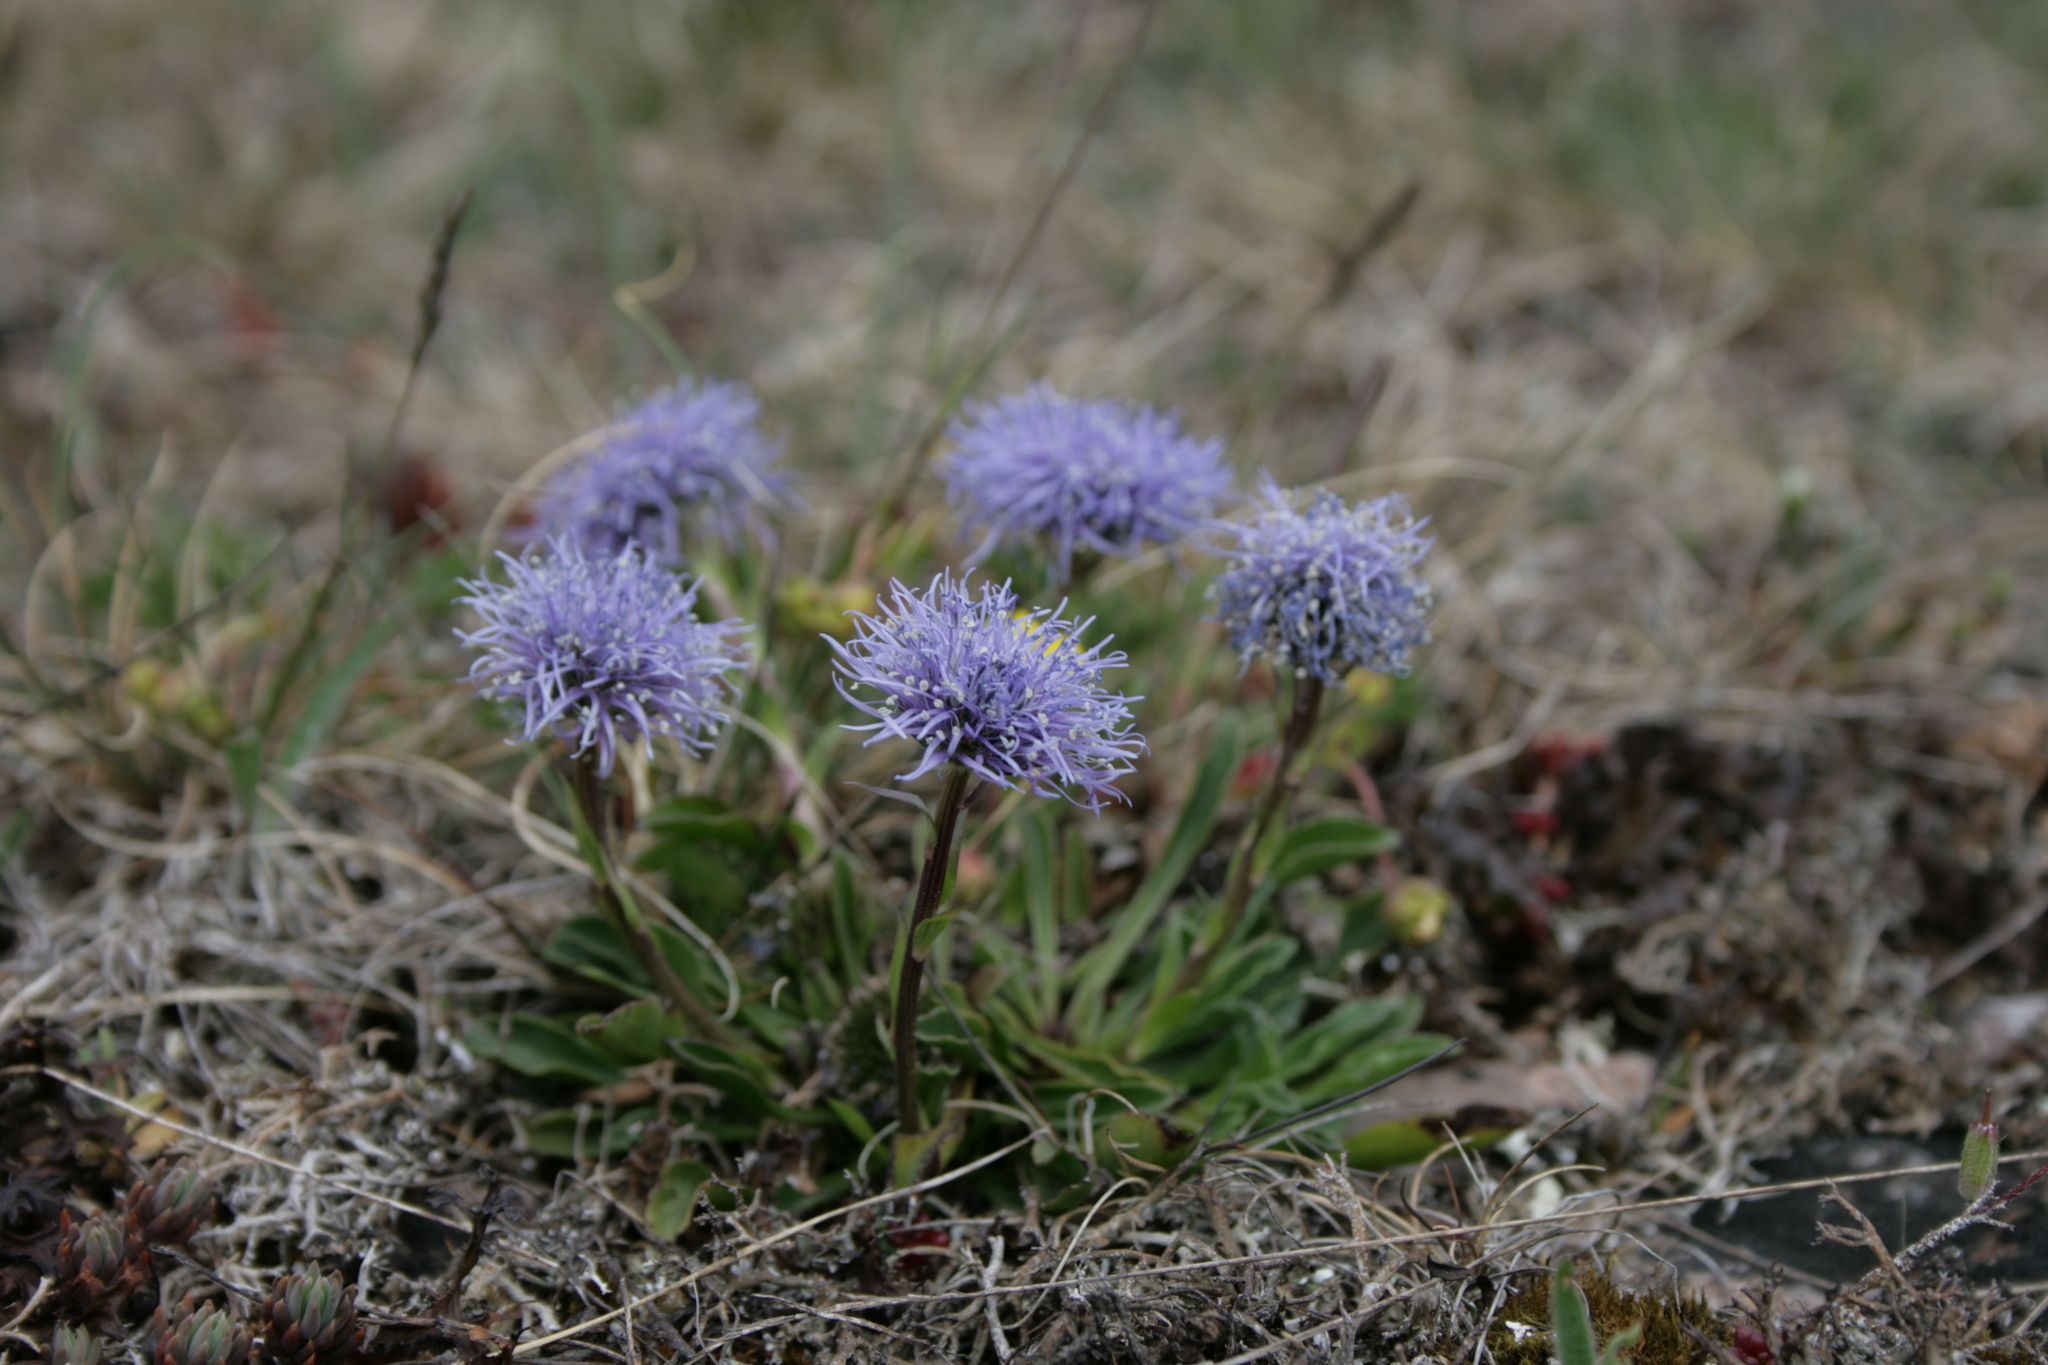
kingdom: Plantae
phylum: Tracheophyta
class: Magnoliopsida
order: Lamiales
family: Plantaginaceae
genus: Globularia
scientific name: Globularia vulgaris
